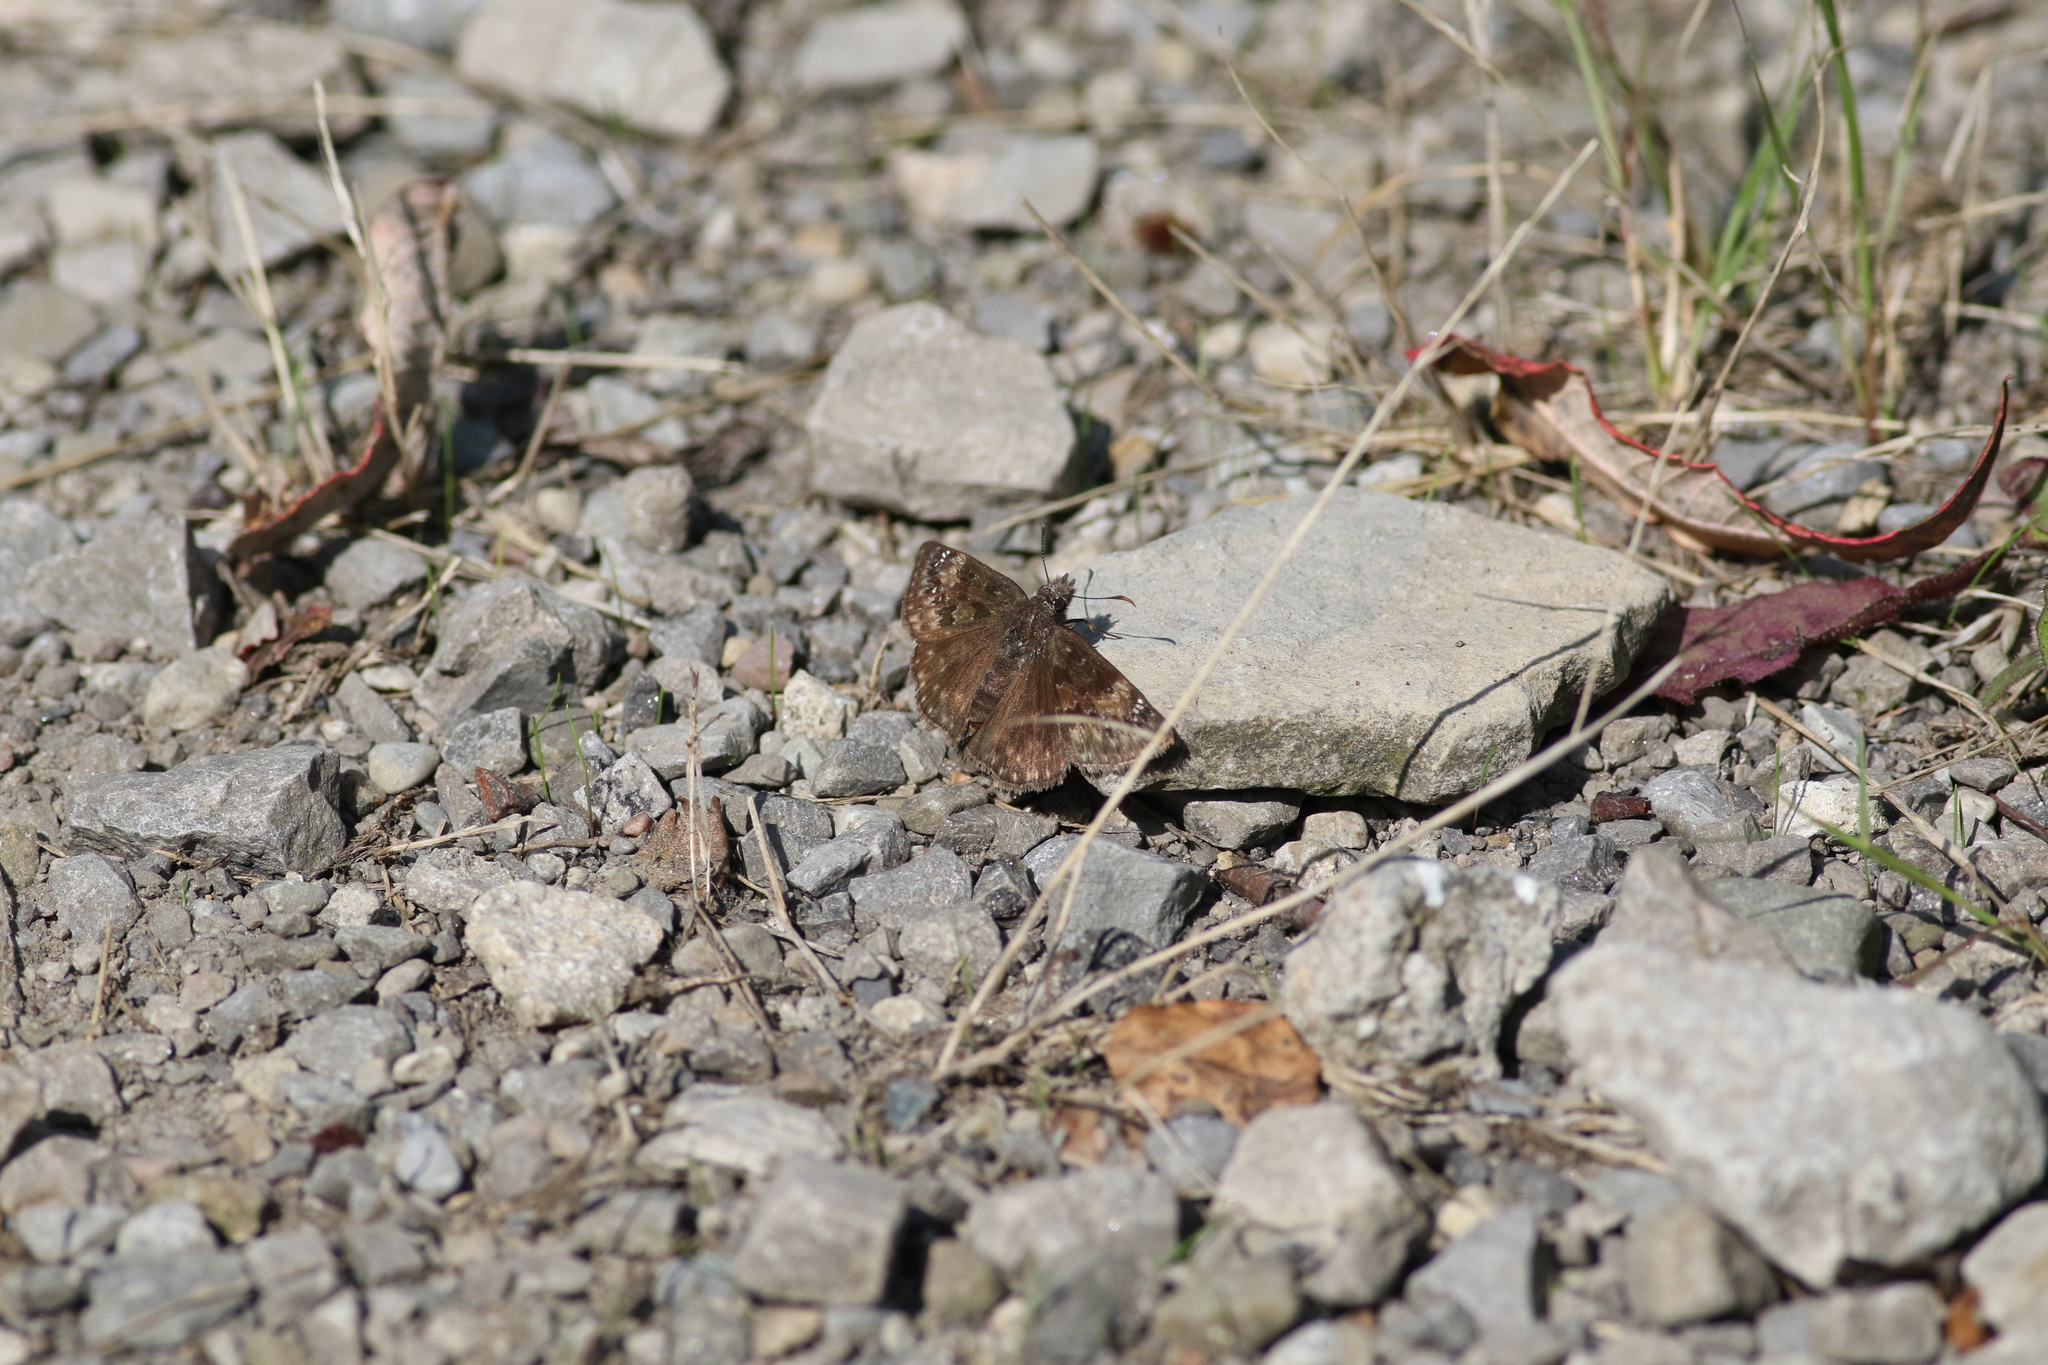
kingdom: Animalia
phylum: Arthropoda
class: Insecta
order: Lepidoptera
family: Hesperiidae
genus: Erynnis
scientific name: Erynnis baptisiae
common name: Wild indigo duskywing
